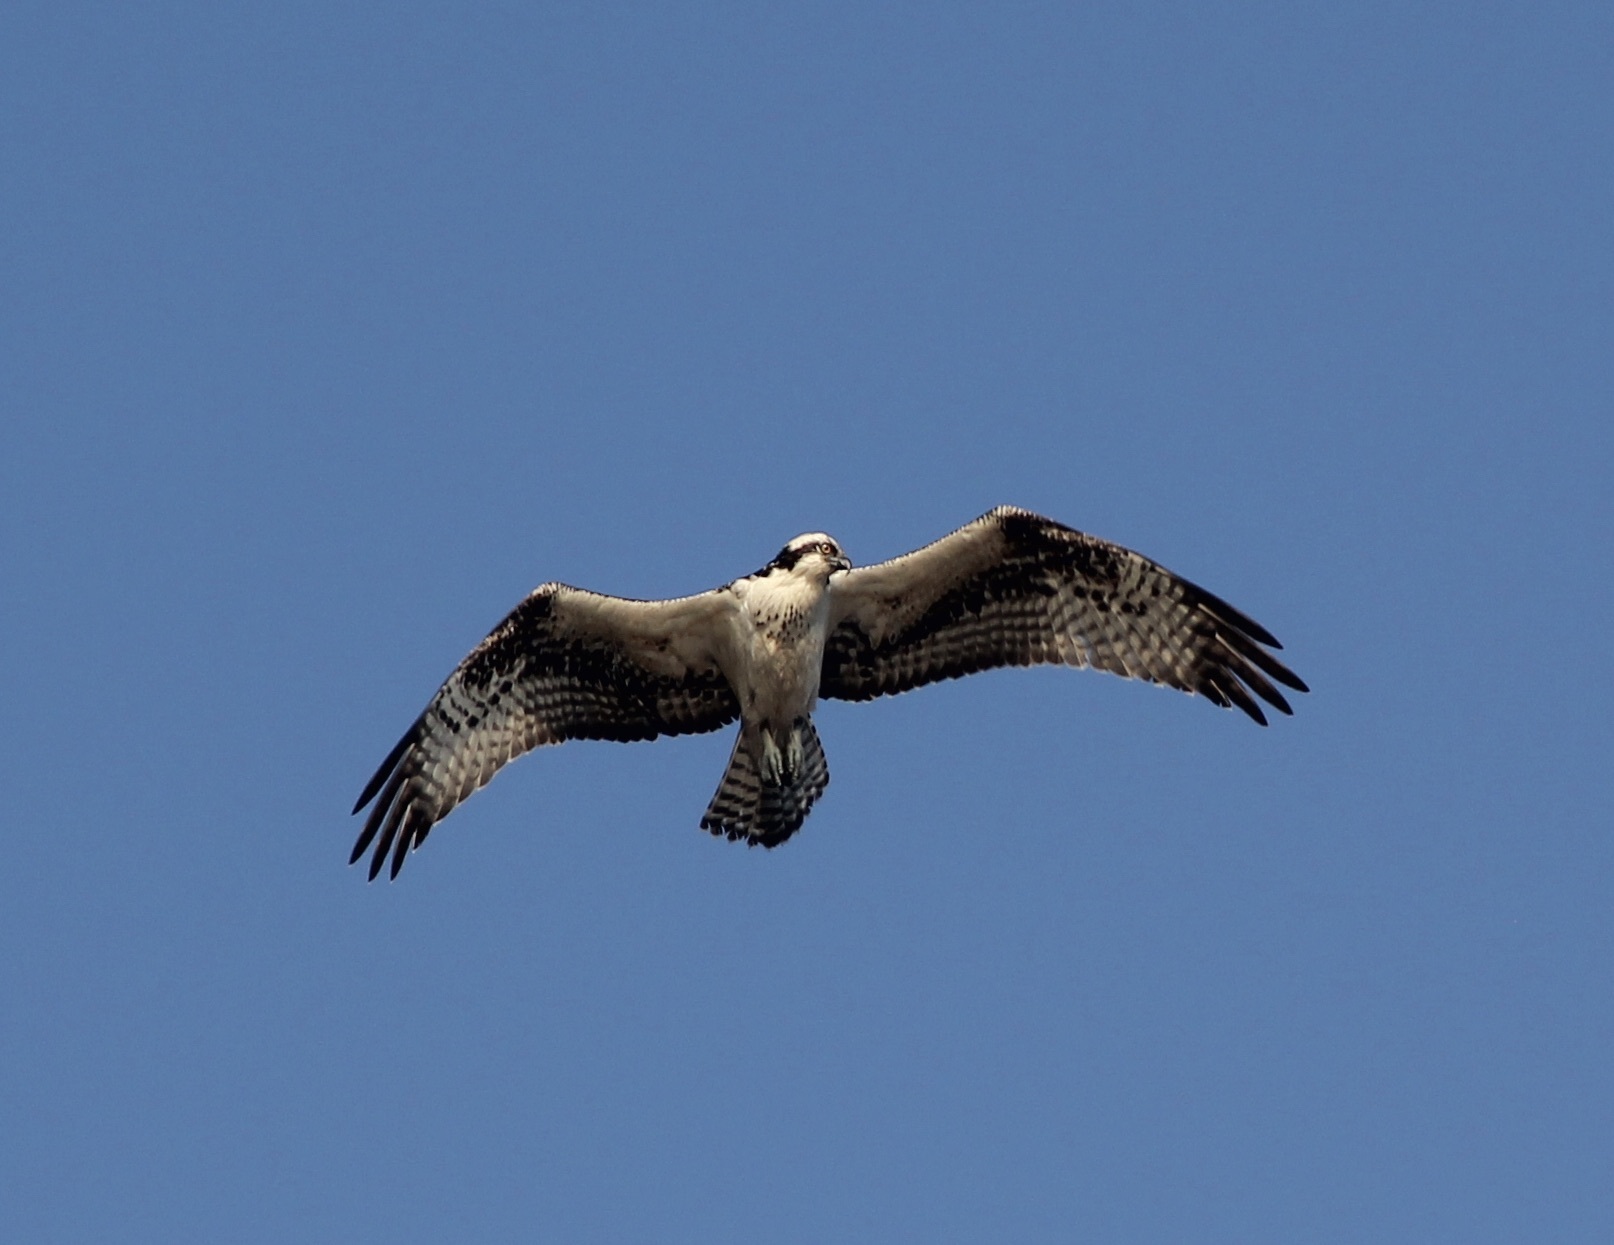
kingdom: Animalia
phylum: Chordata
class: Aves
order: Accipitriformes
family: Pandionidae
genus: Pandion
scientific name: Pandion haliaetus
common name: Osprey
